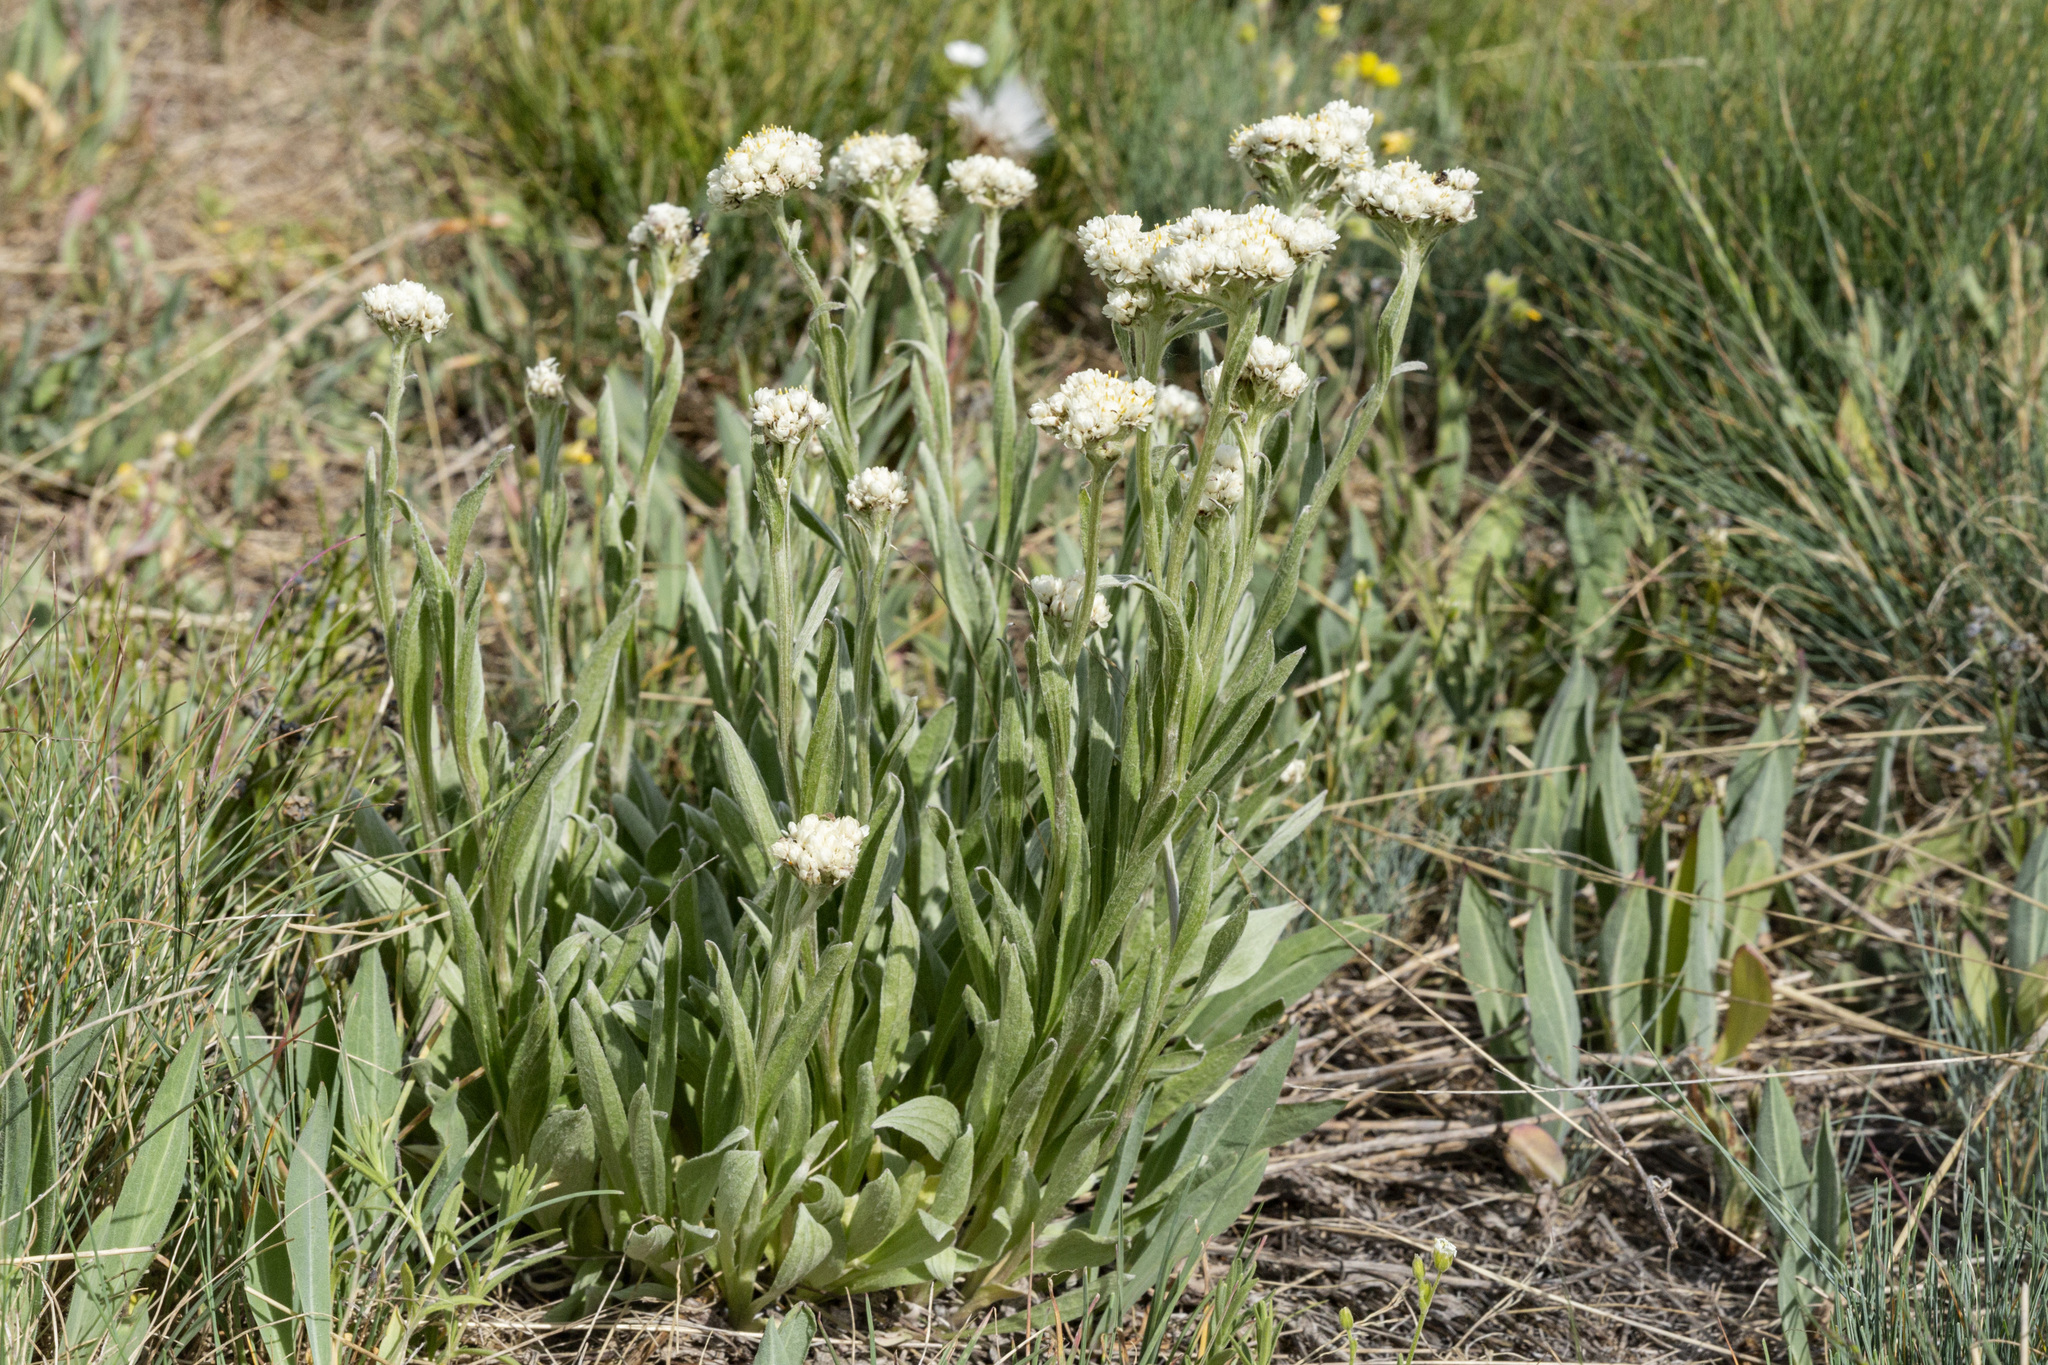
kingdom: Plantae
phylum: Tracheophyta
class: Magnoliopsida
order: Asterales
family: Asteraceae
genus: Antennaria
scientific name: Antennaria anaphaloides
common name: Tall pussytoes
